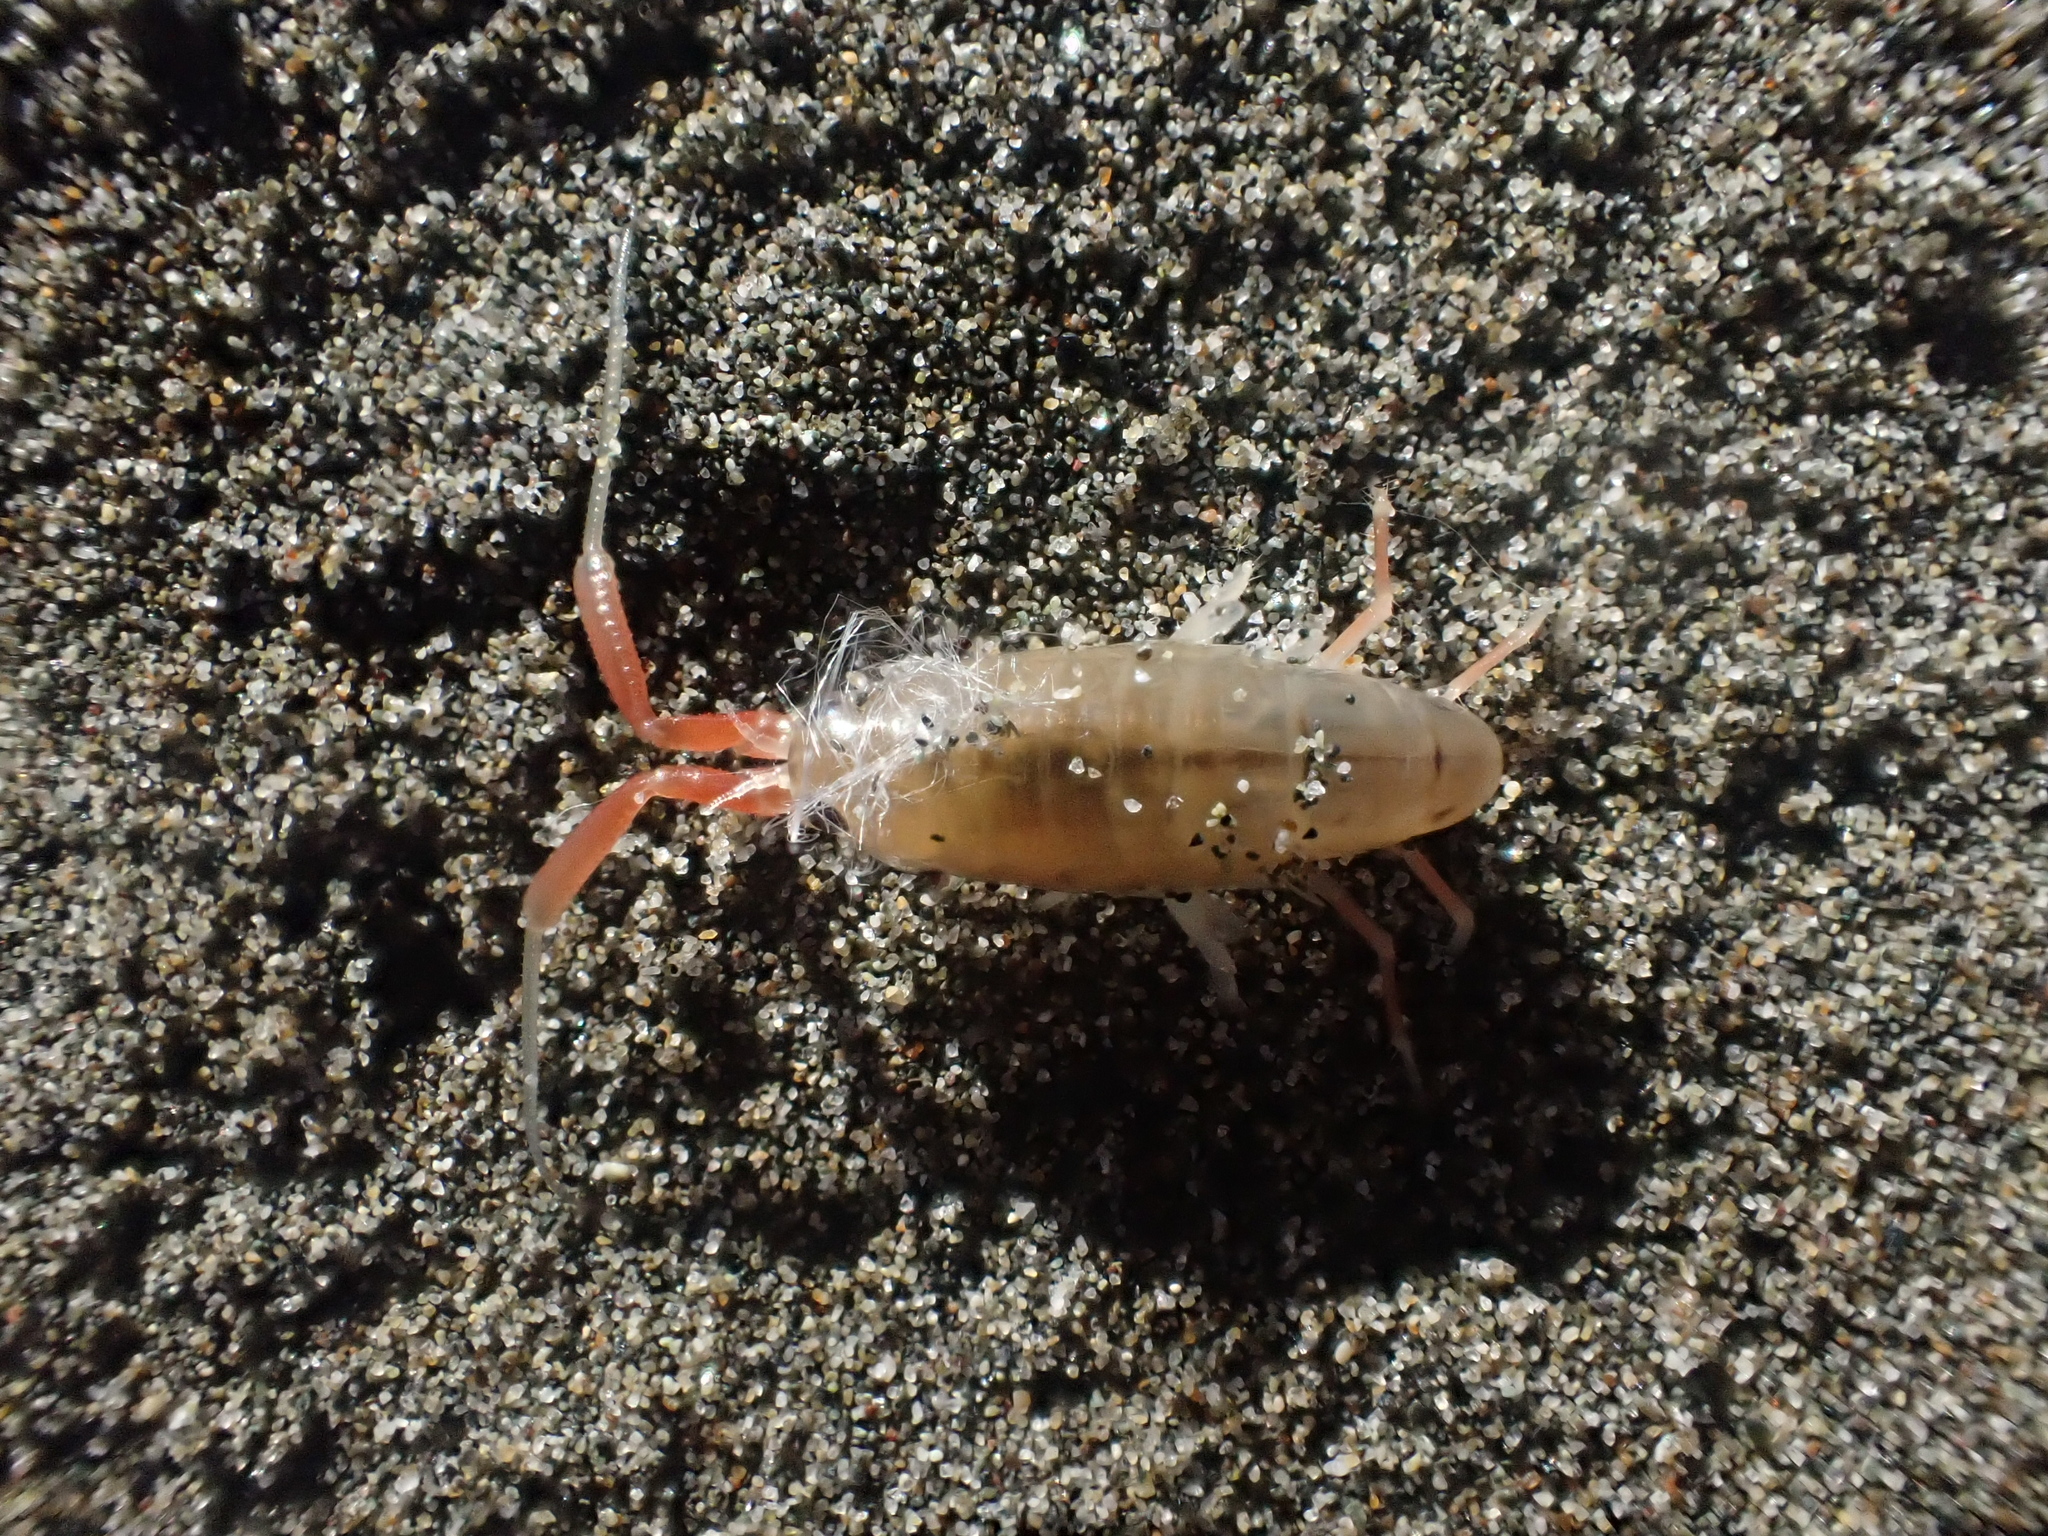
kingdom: Animalia
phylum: Arthropoda
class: Malacostraca
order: Amphipoda
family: Talitridae
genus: Megalorchestia
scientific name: Megalorchestia californiana
